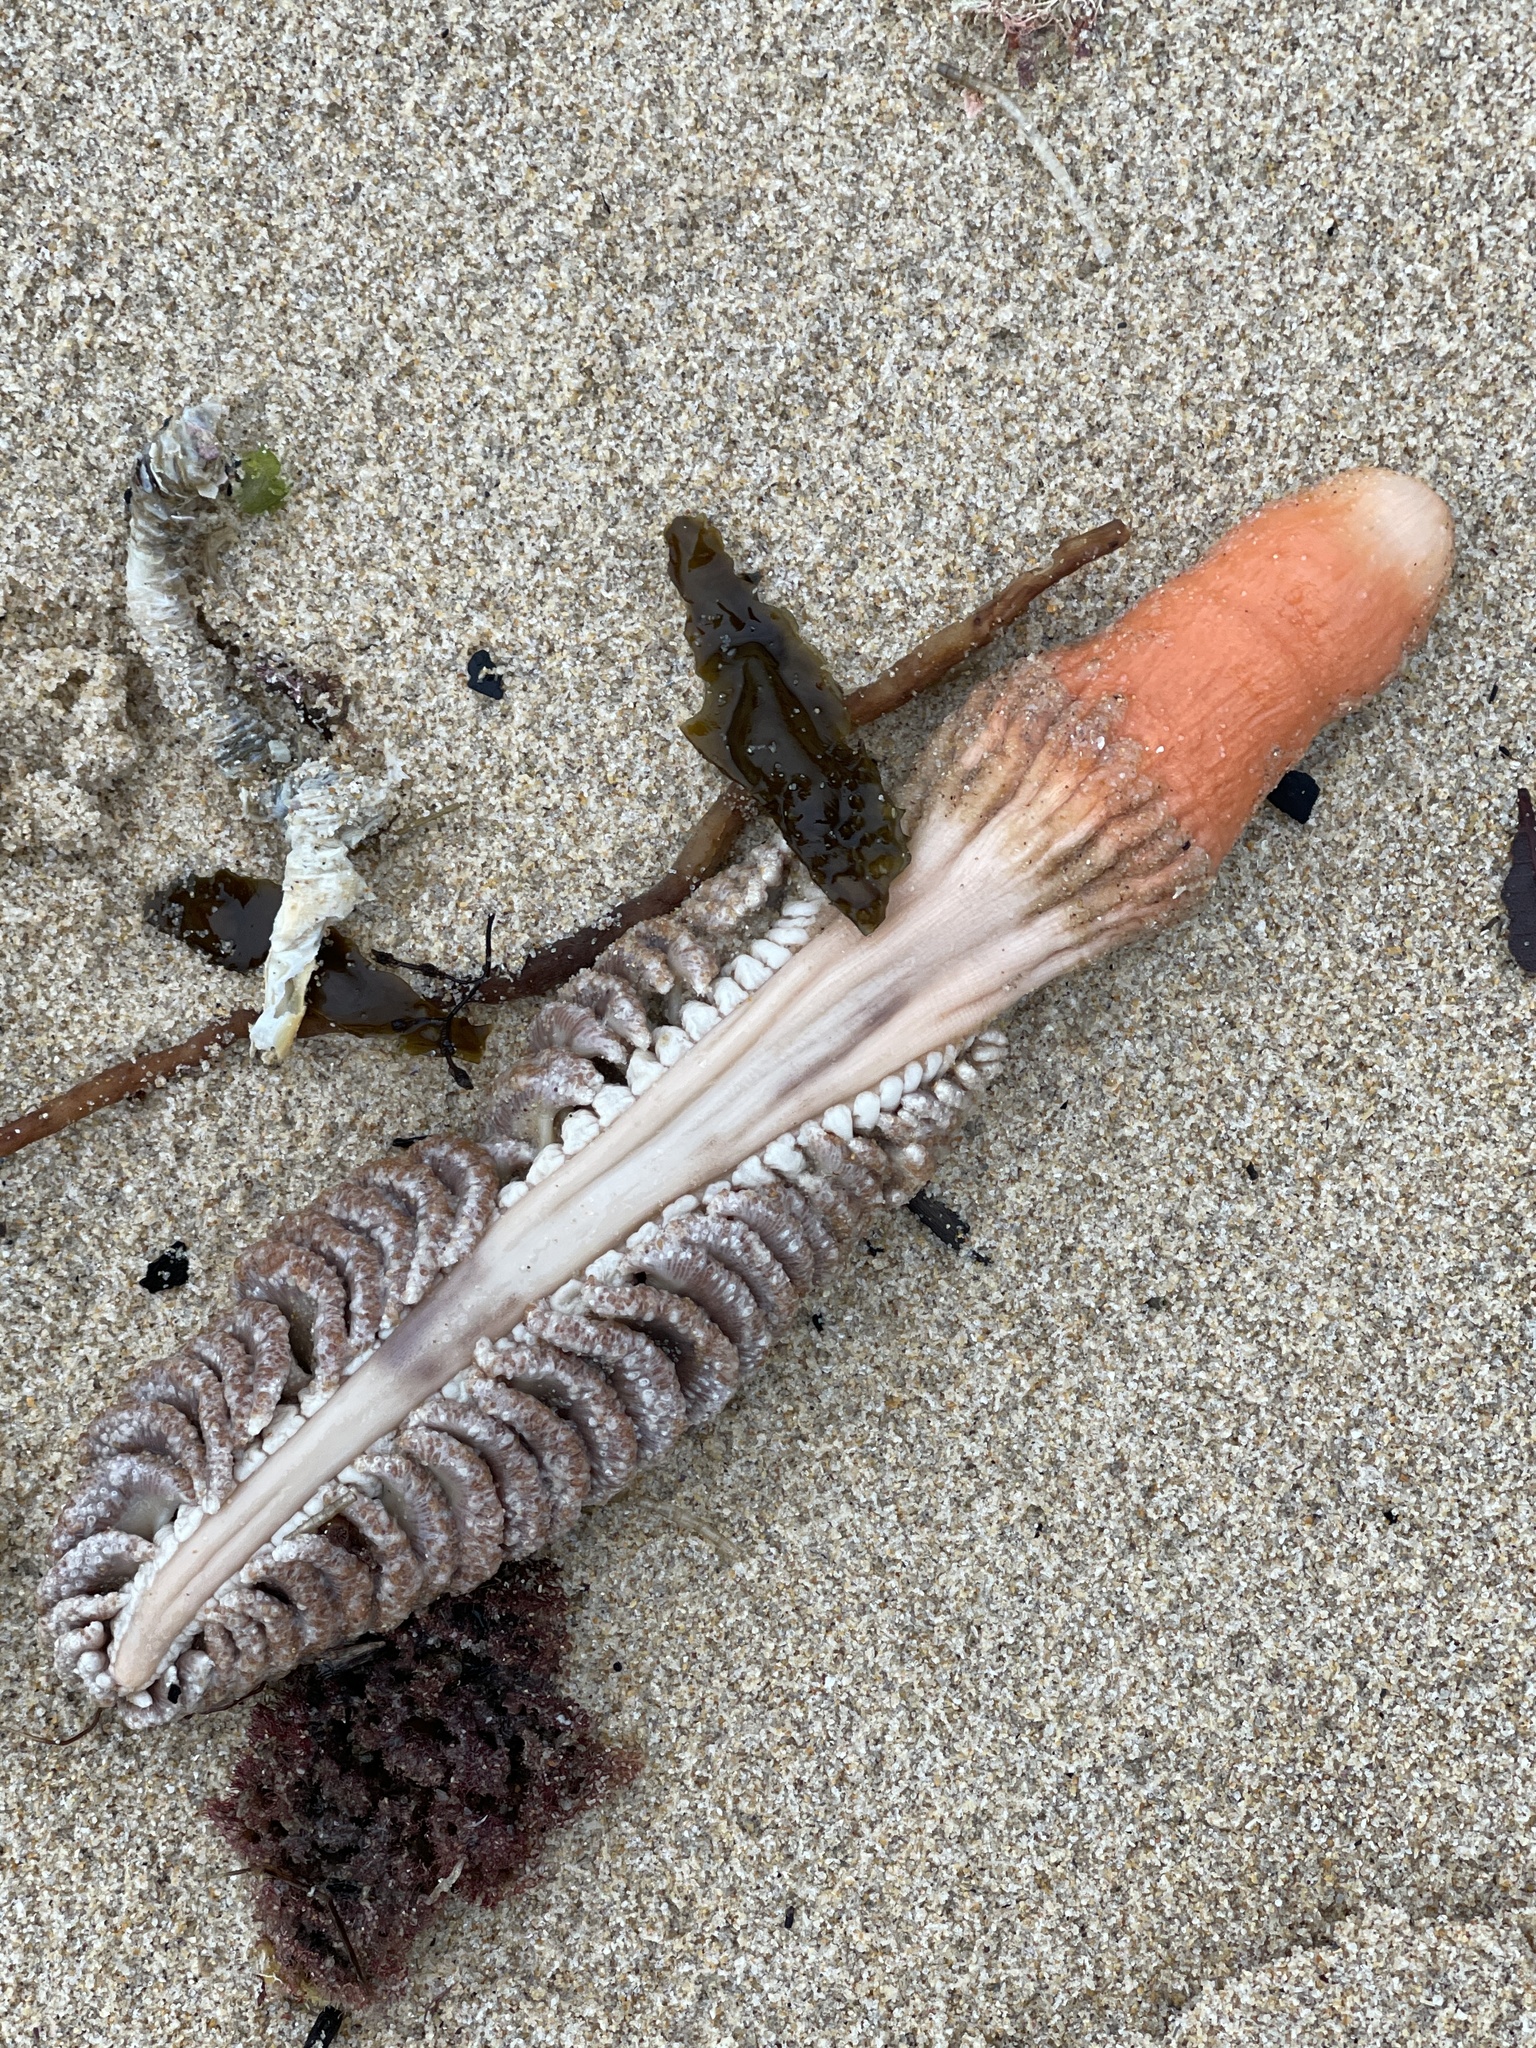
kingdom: Animalia
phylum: Cnidaria
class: Anthozoa
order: Scleralcyonacea
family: Pennatulidae
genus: Sarcoptilus
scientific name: Sarcoptilus grandis
